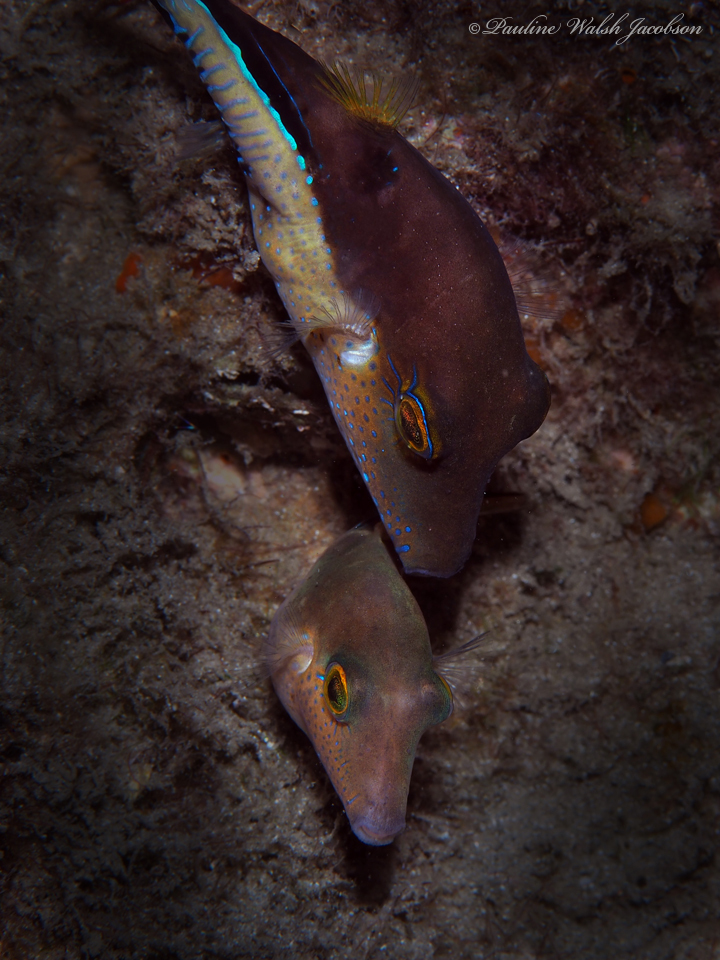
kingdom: Animalia
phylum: Chordata
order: Tetraodontiformes
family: Tetraodontidae
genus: Canthigaster
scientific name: Canthigaster rostrata
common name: Caribbean sharpnose-puffer
